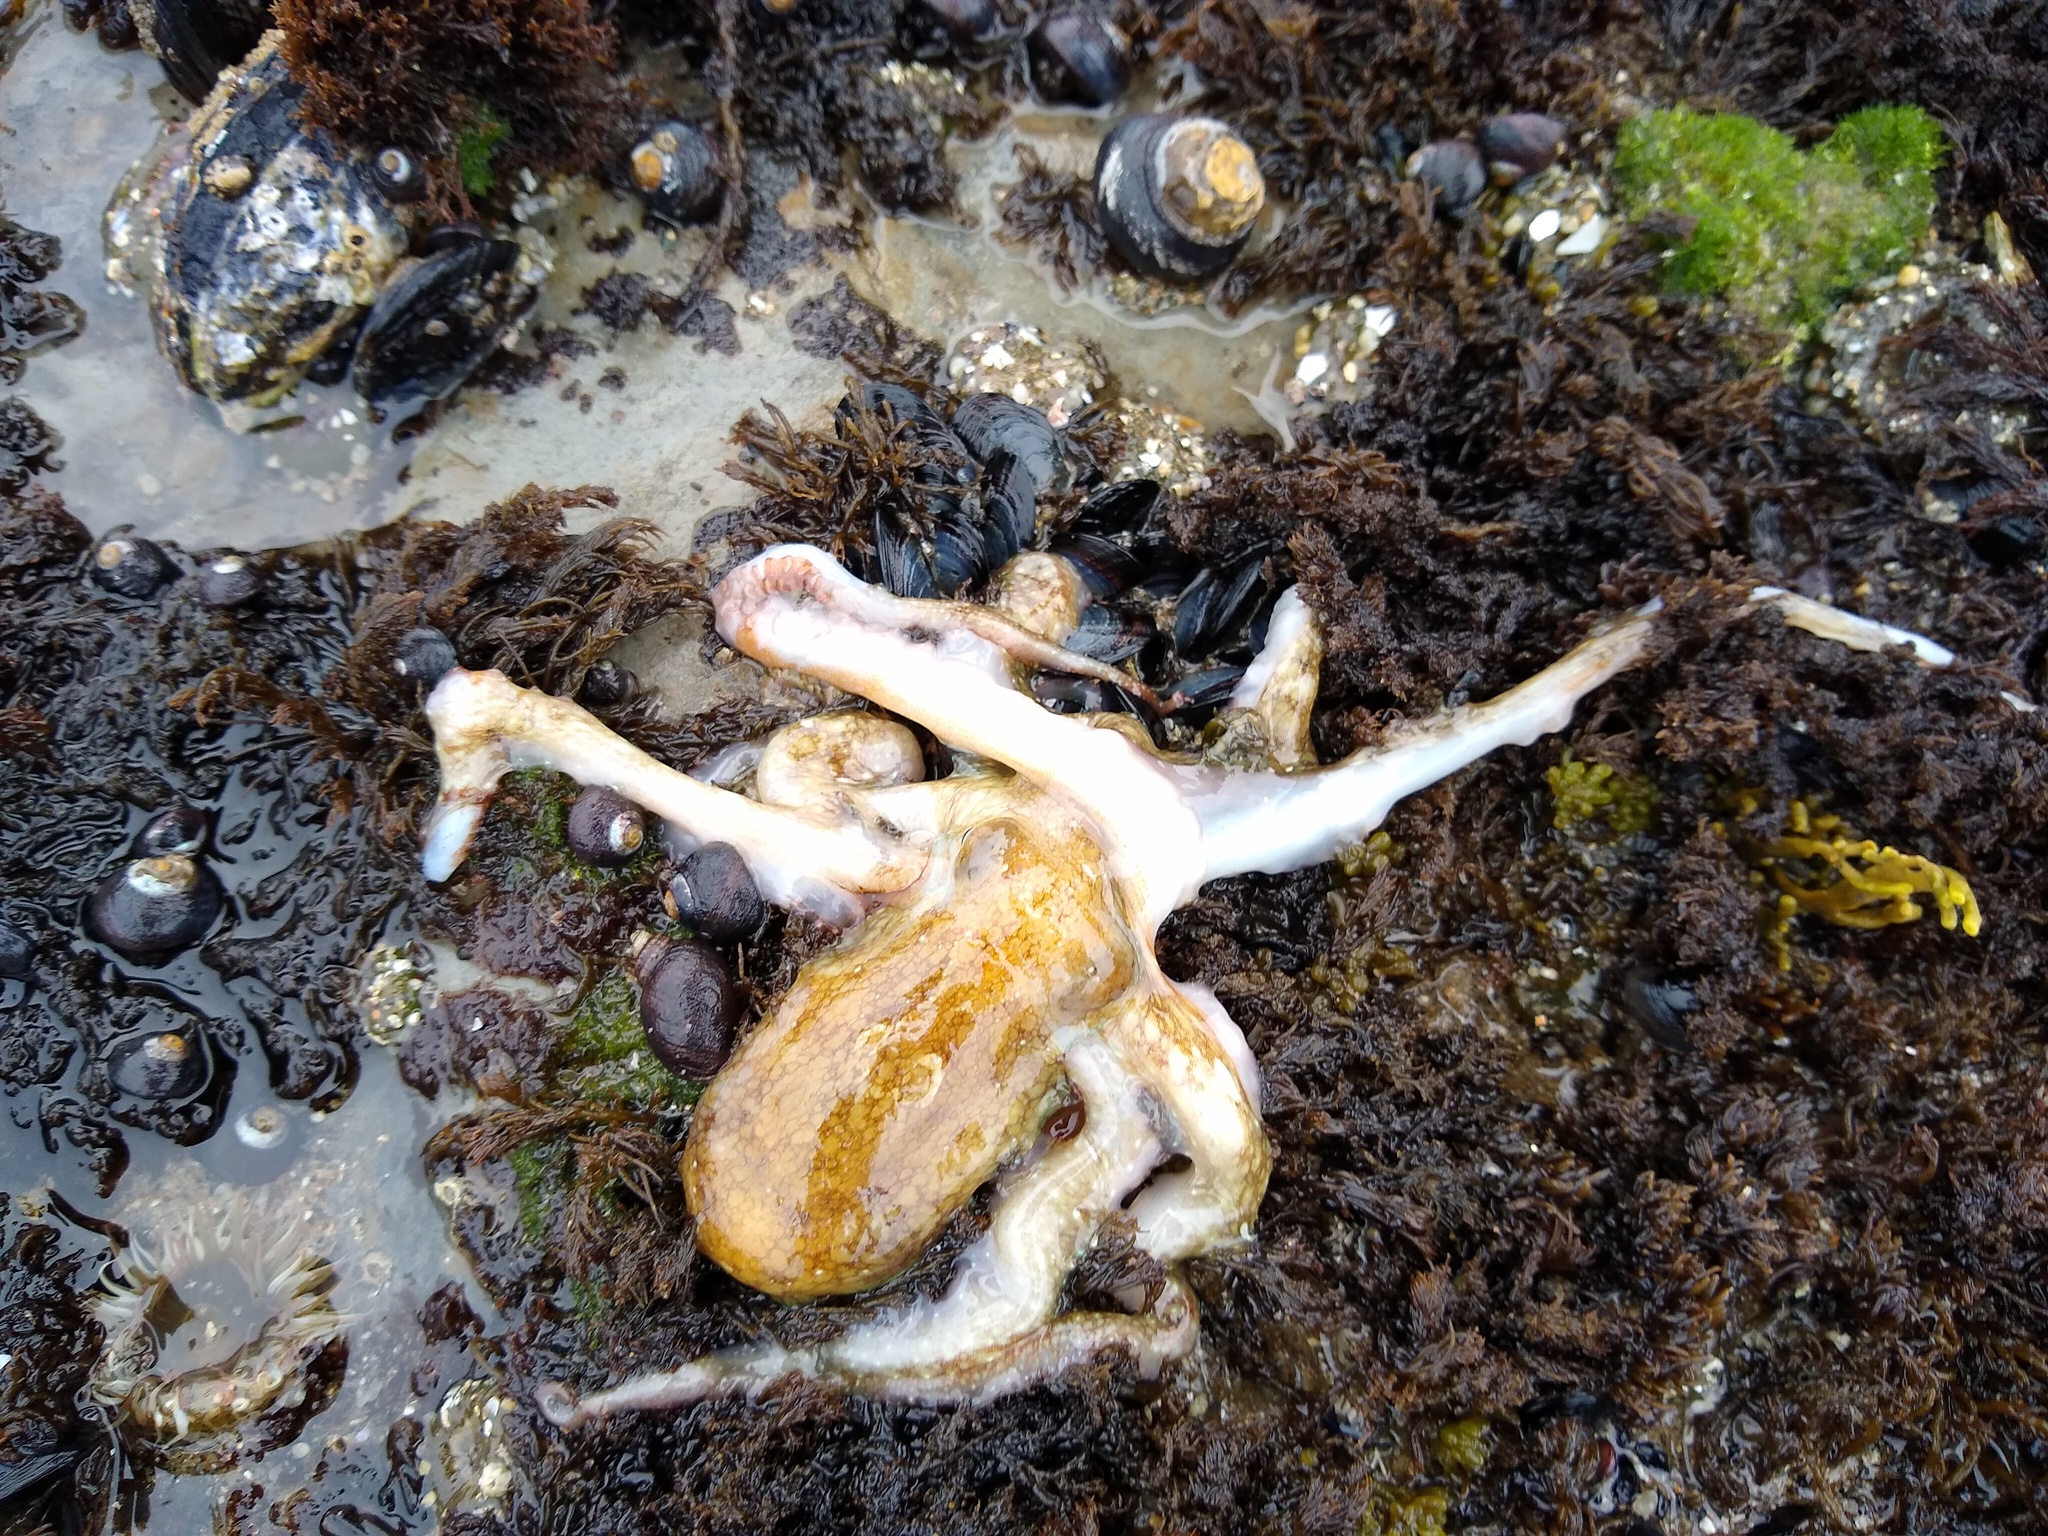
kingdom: Animalia
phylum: Mollusca
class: Cephalopoda
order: Octopoda
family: Octopodidae
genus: Octopus
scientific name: Octopus rubescens
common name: East pacific red octopus
